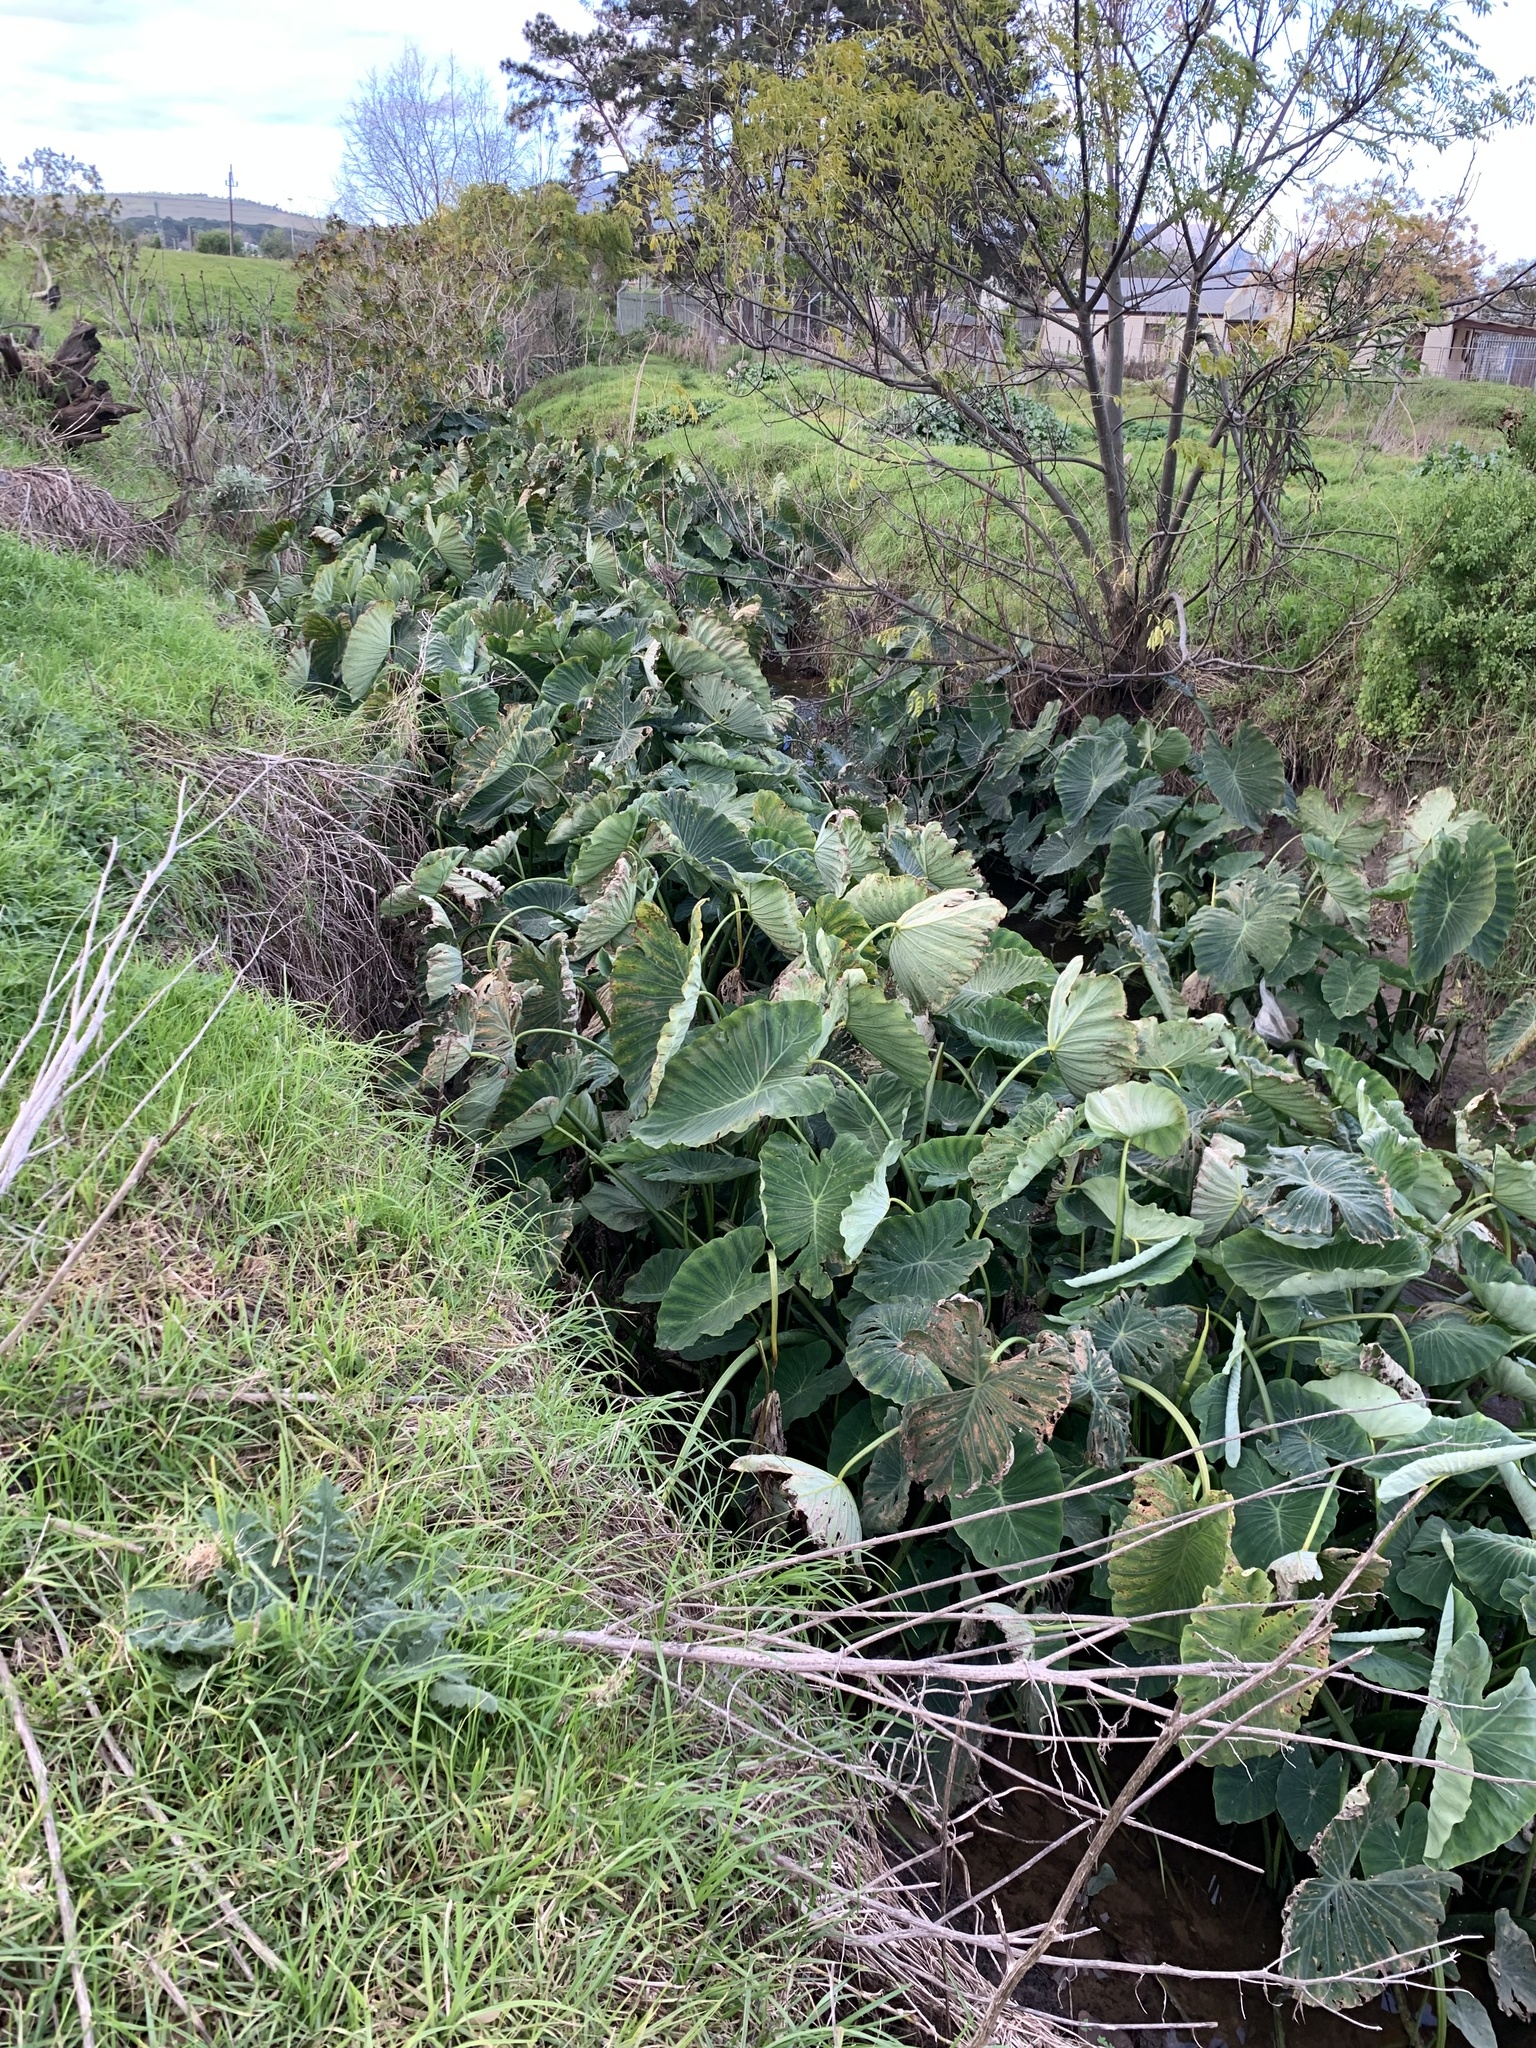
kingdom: Plantae
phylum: Tracheophyta
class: Liliopsida
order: Alismatales
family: Araceae
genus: Colocasia
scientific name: Colocasia esculenta
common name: Taro
